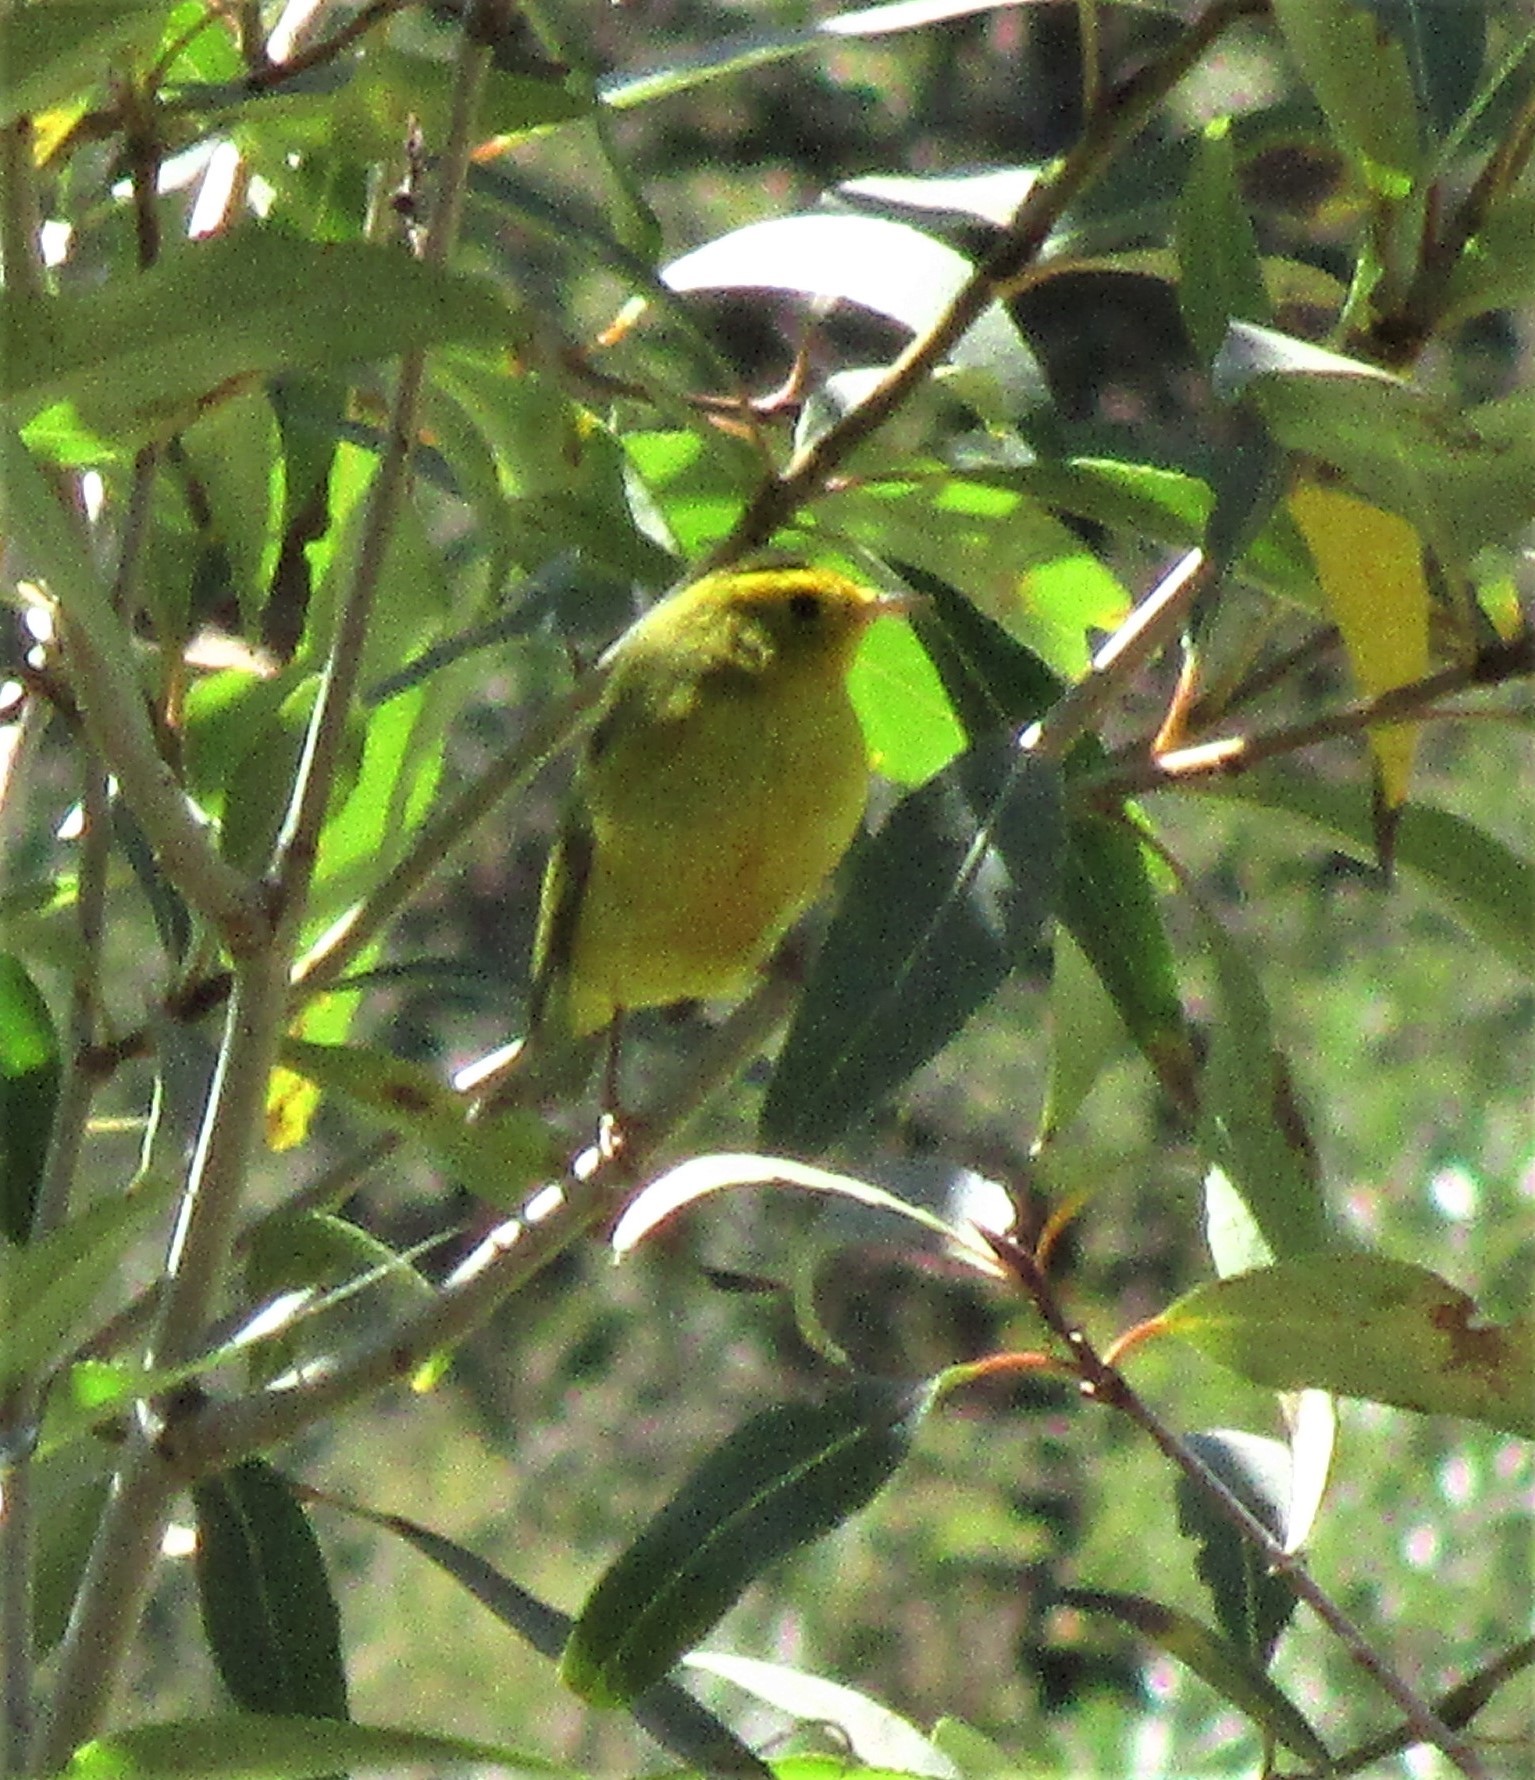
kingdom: Animalia
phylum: Chordata
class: Aves
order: Passeriformes
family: Parulidae
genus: Cardellina
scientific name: Cardellina pusilla
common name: Wilson's warbler
